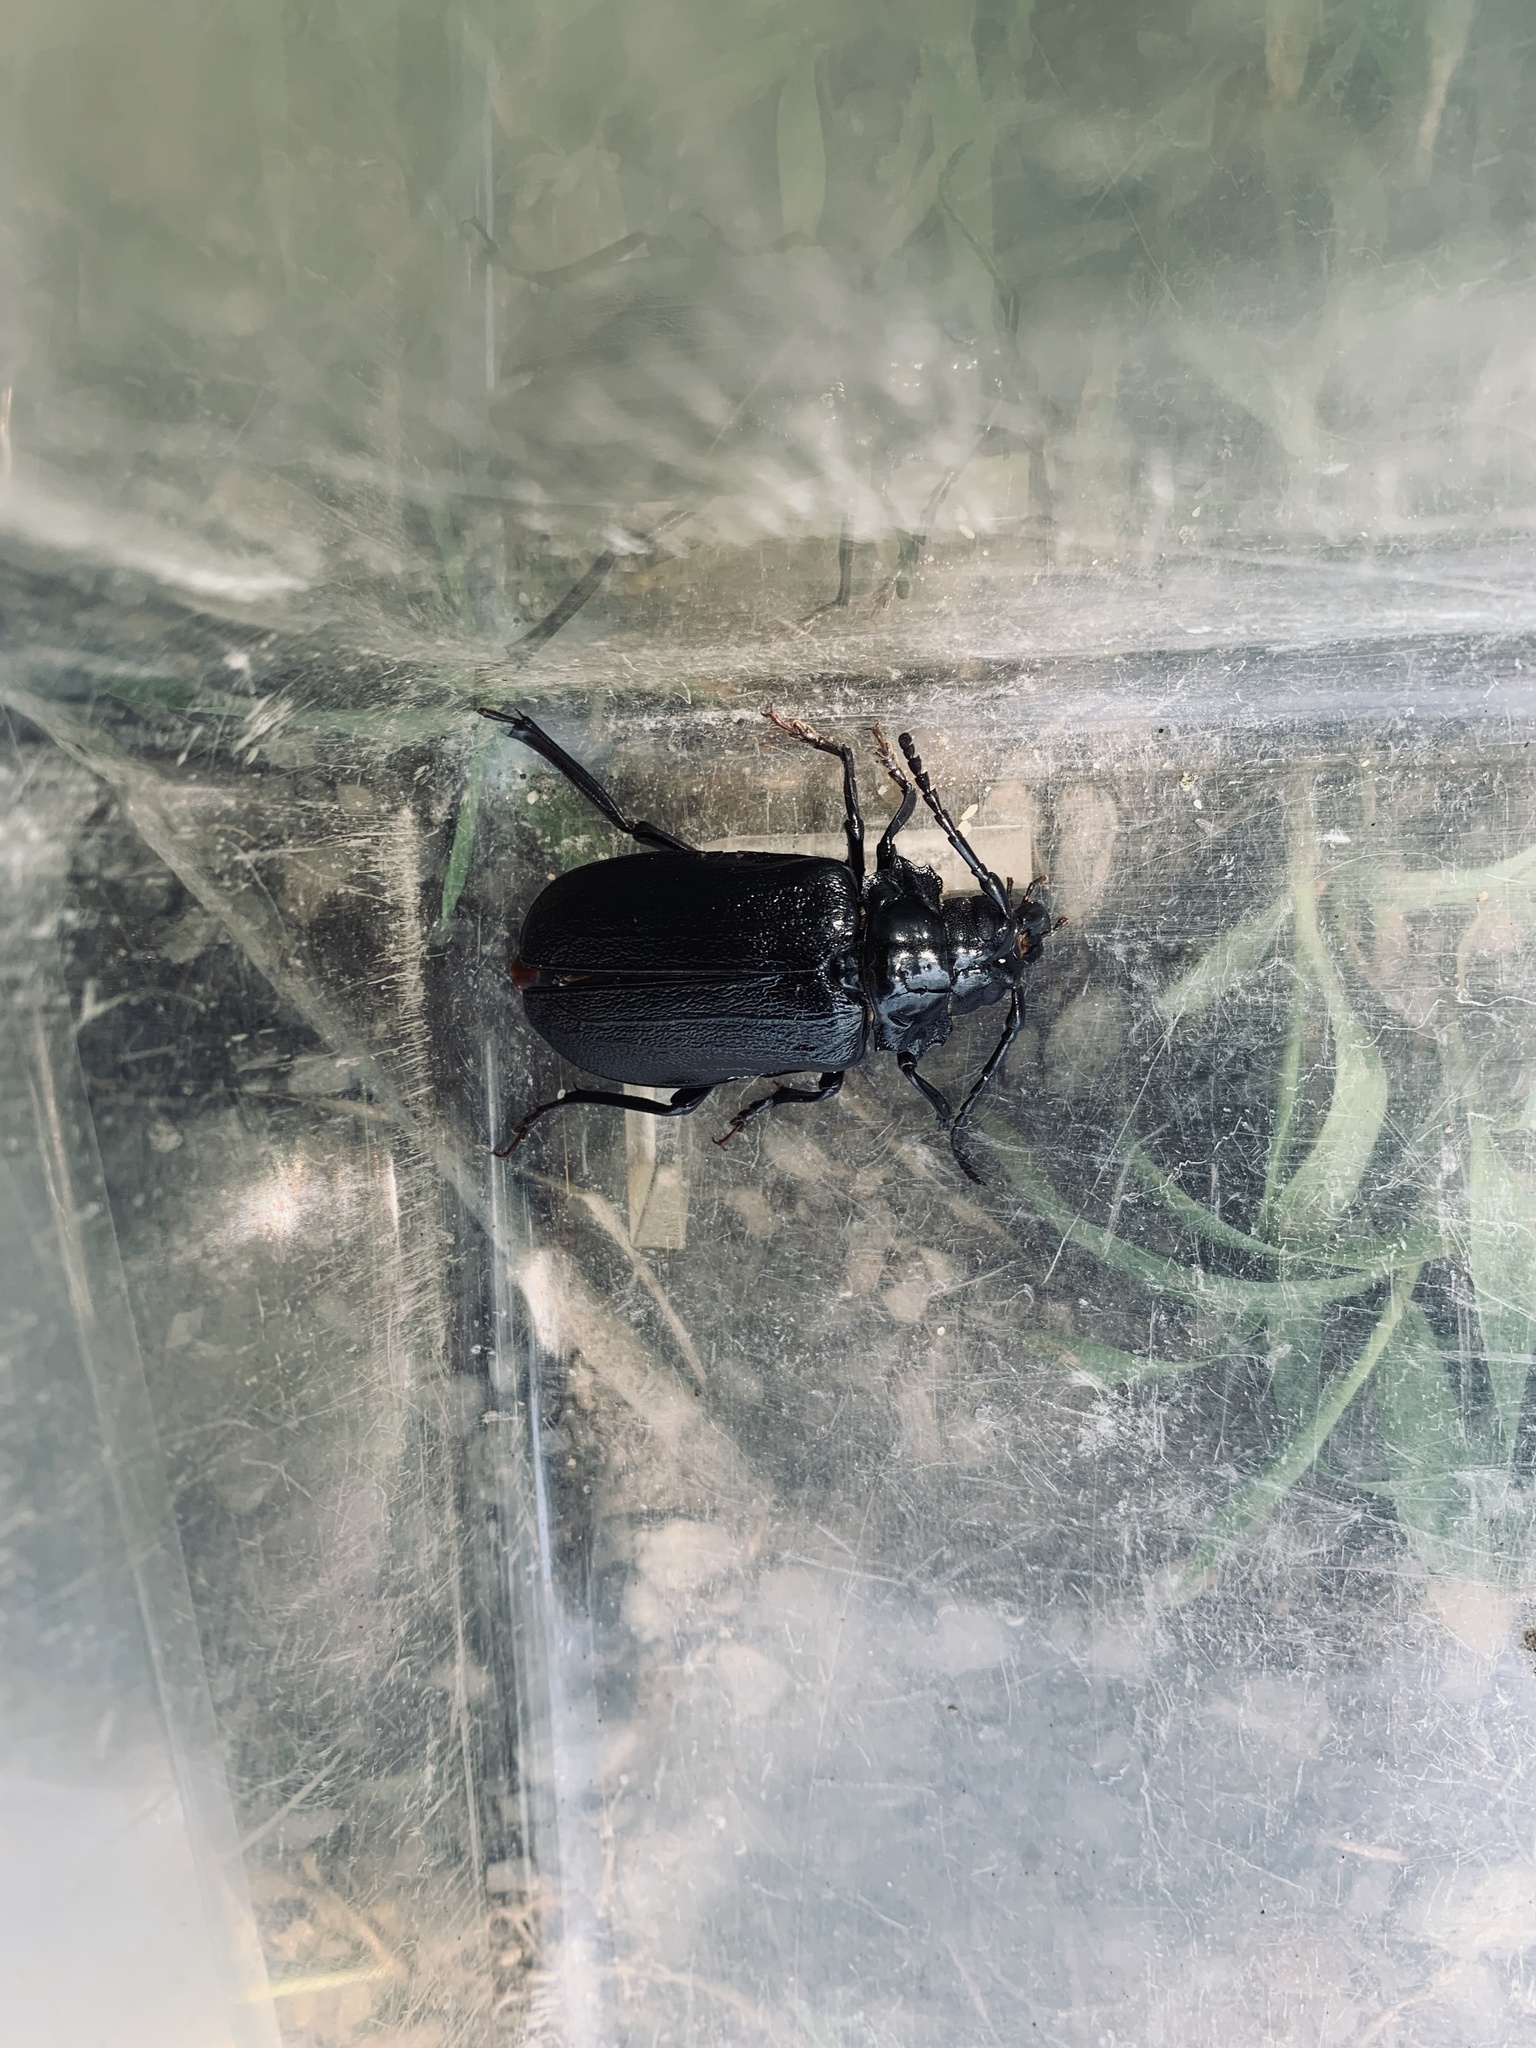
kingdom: Animalia
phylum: Arthropoda
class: Insecta
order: Coleoptera
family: Cerambycidae
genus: Prionus
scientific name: Prionus laticollis
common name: Broad necked prionus
